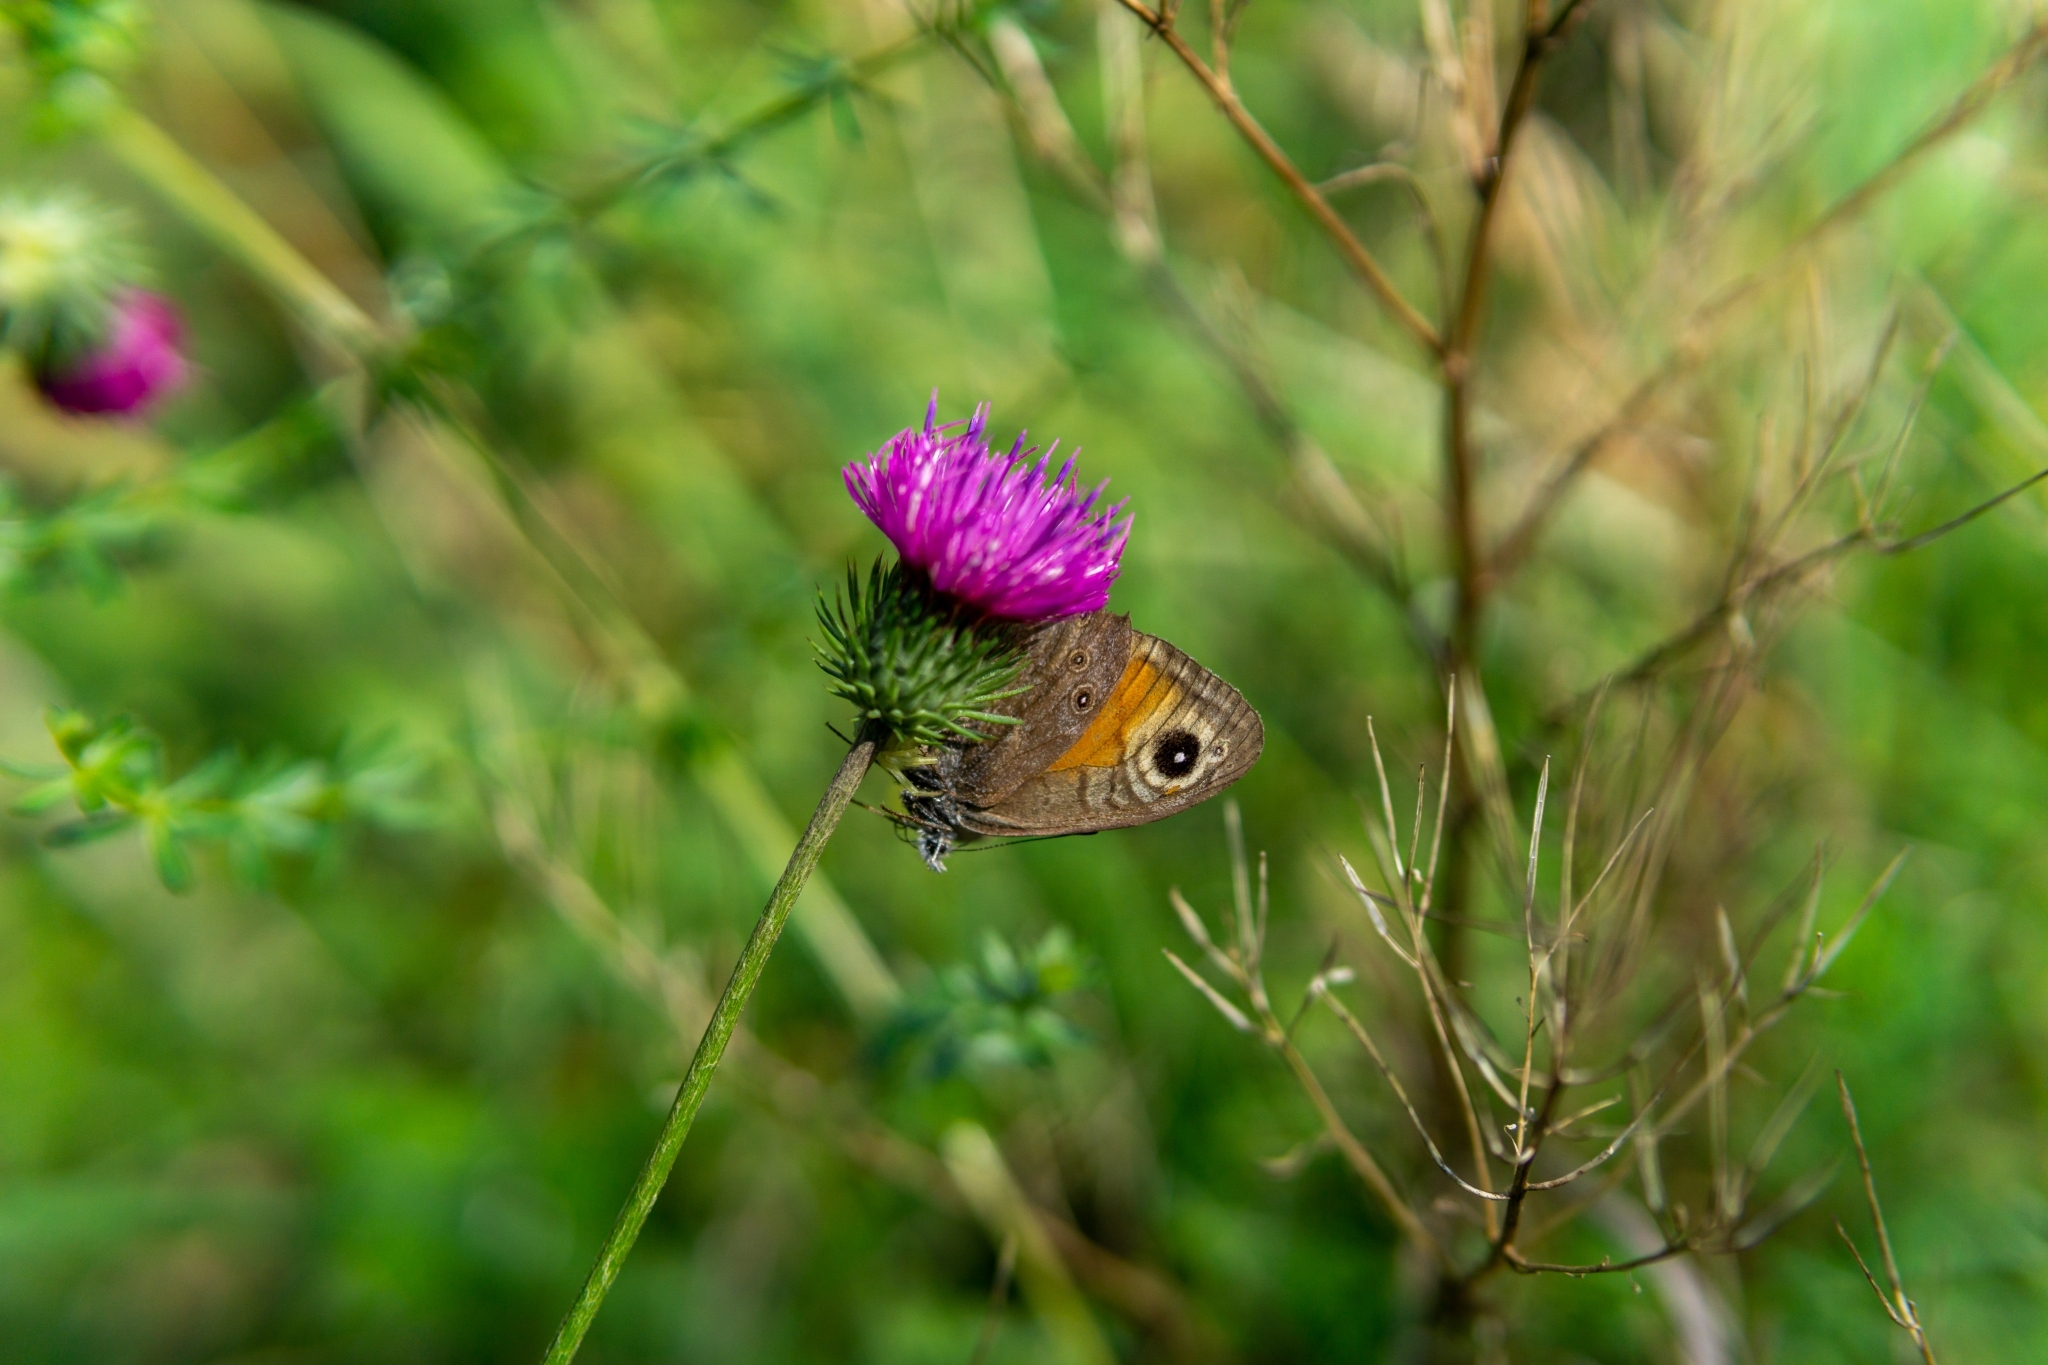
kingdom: Animalia
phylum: Arthropoda
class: Insecta
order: Lepidoptera
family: Nymphalidae
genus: Pararge
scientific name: Pararge Lasiommata maera
